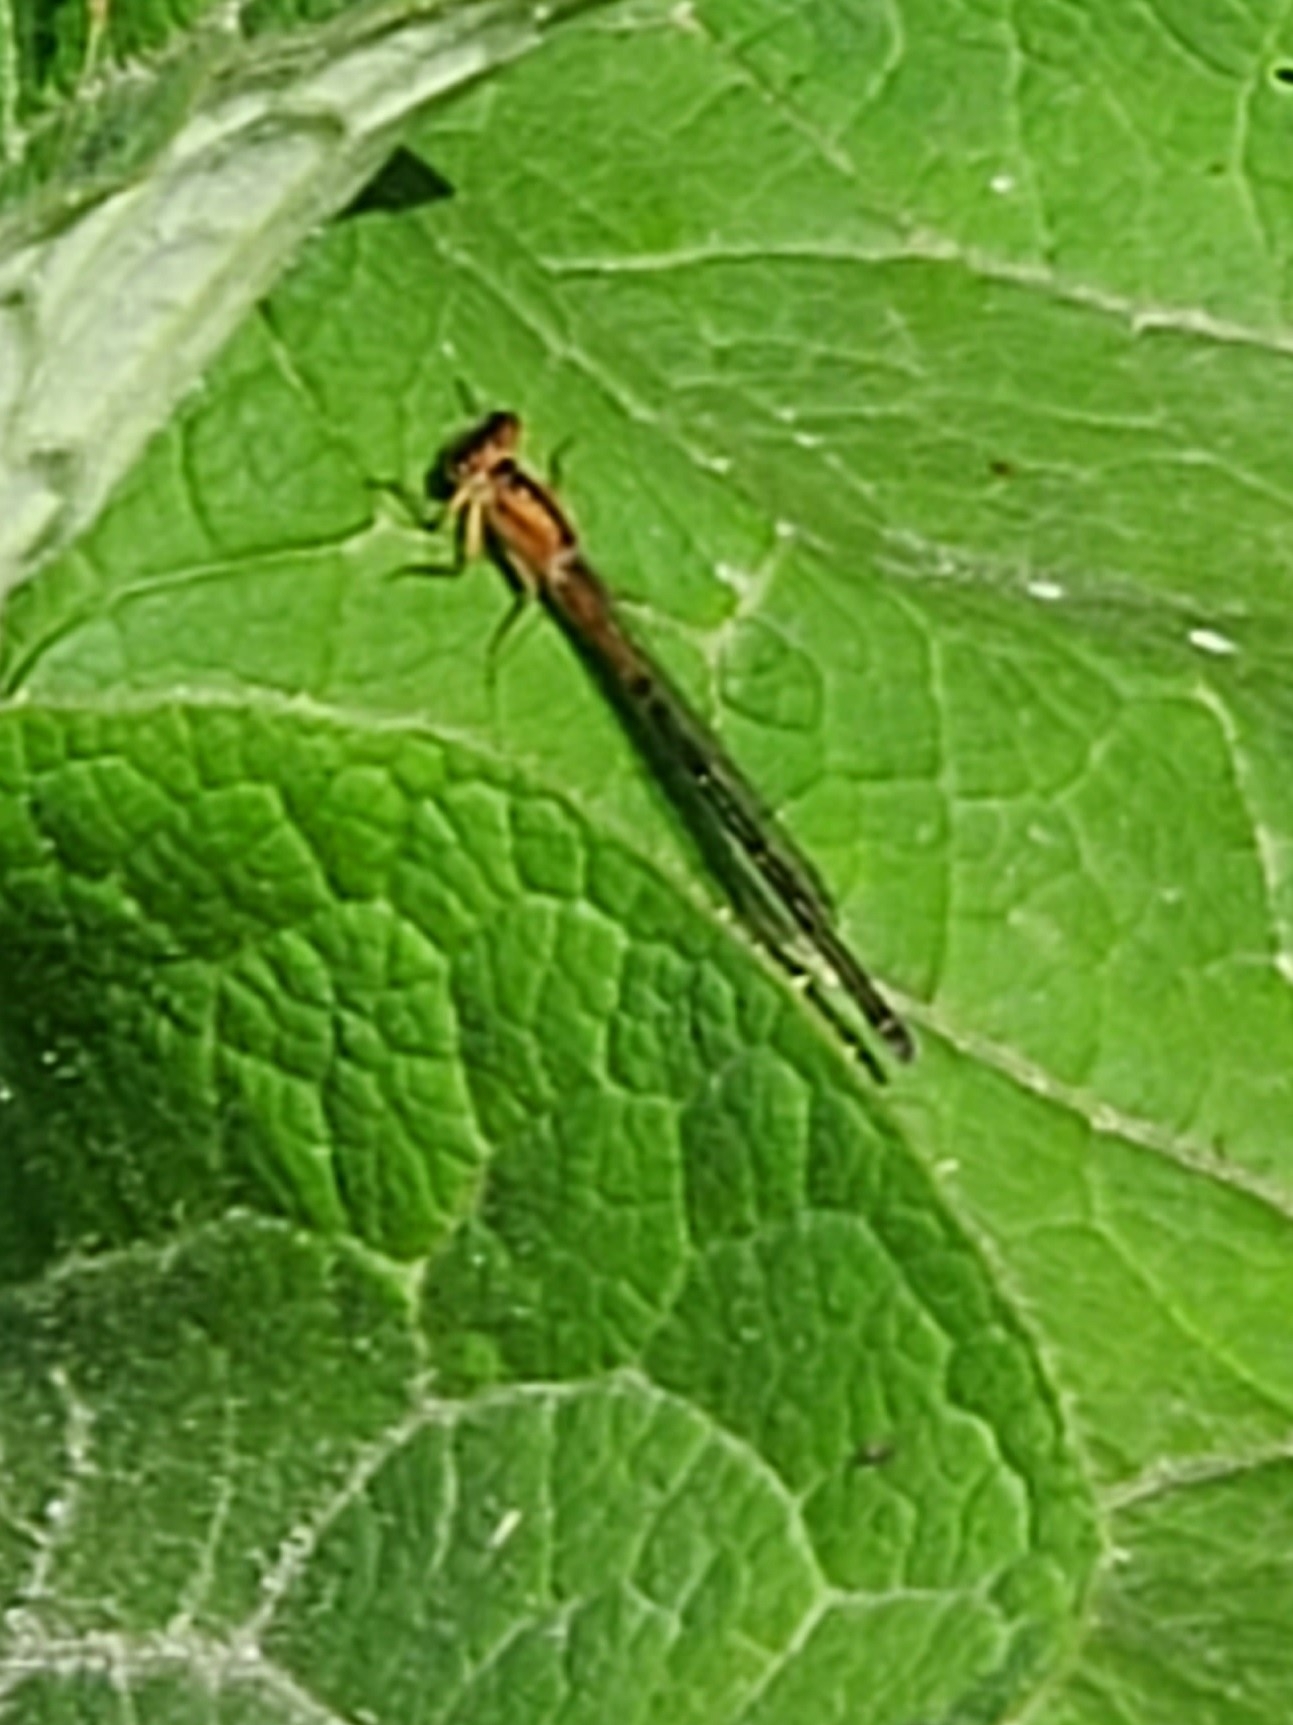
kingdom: Animalia
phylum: Arthropoda
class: Insecta
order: Odonata
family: Coenagrionidae
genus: Ischnura
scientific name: Ischnura verticalis
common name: Eastern forktail
